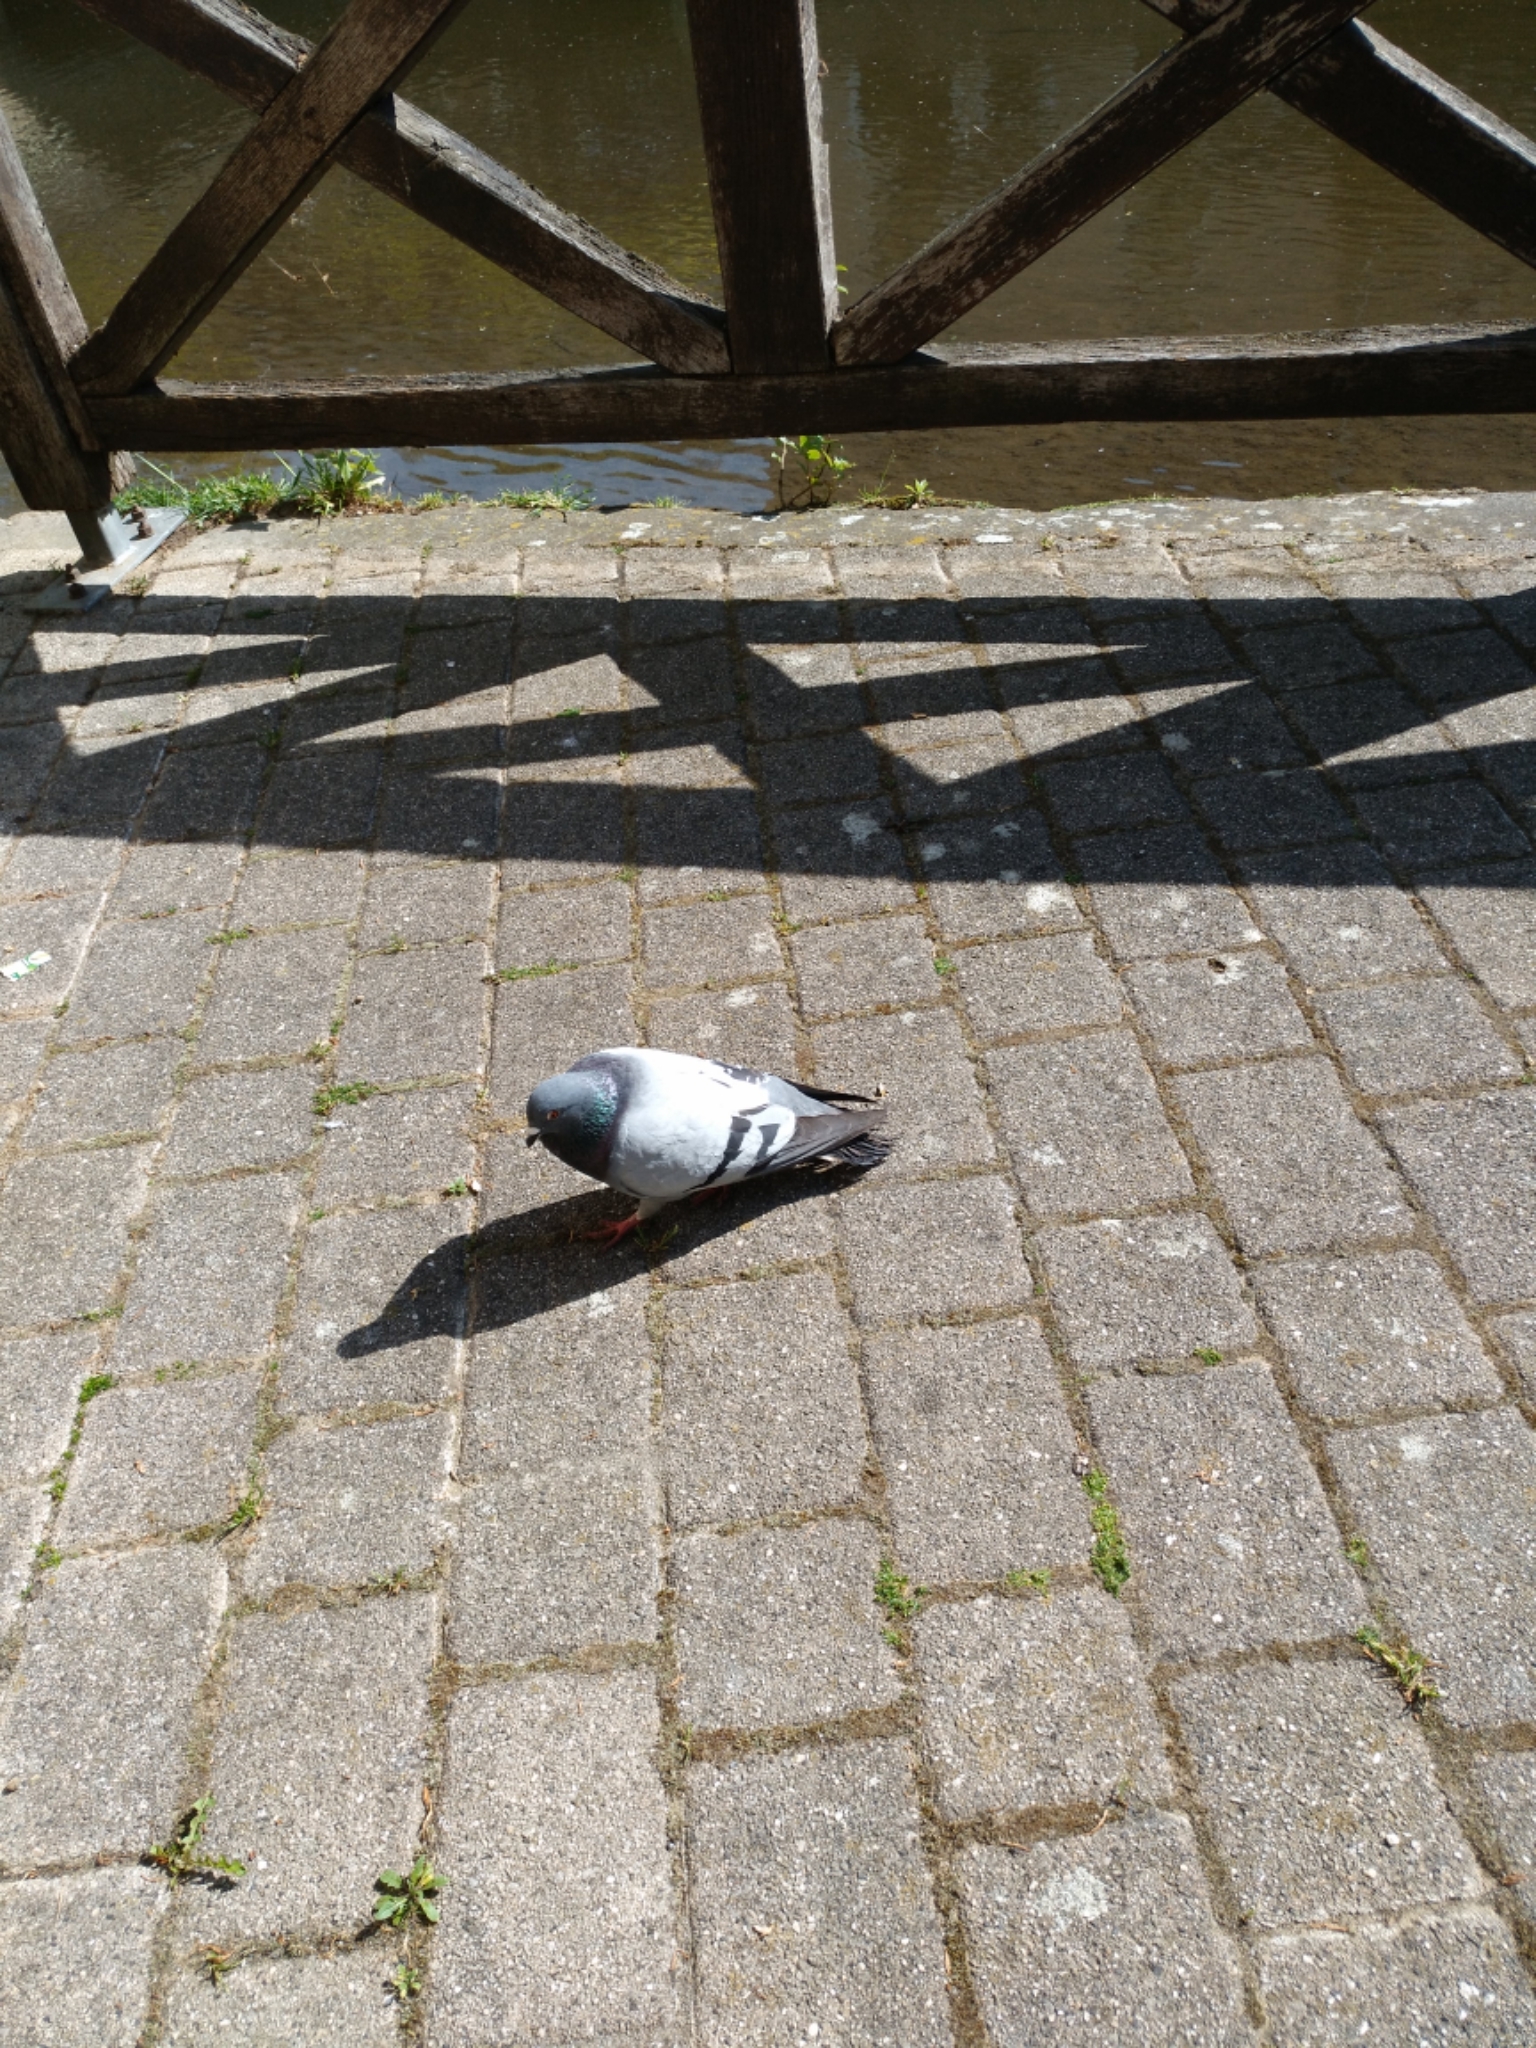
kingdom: Animalia
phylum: Chordata
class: Aves
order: Columbiformes
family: Columbidae
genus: Columba
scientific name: Columba livia
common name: Rock pigeon
